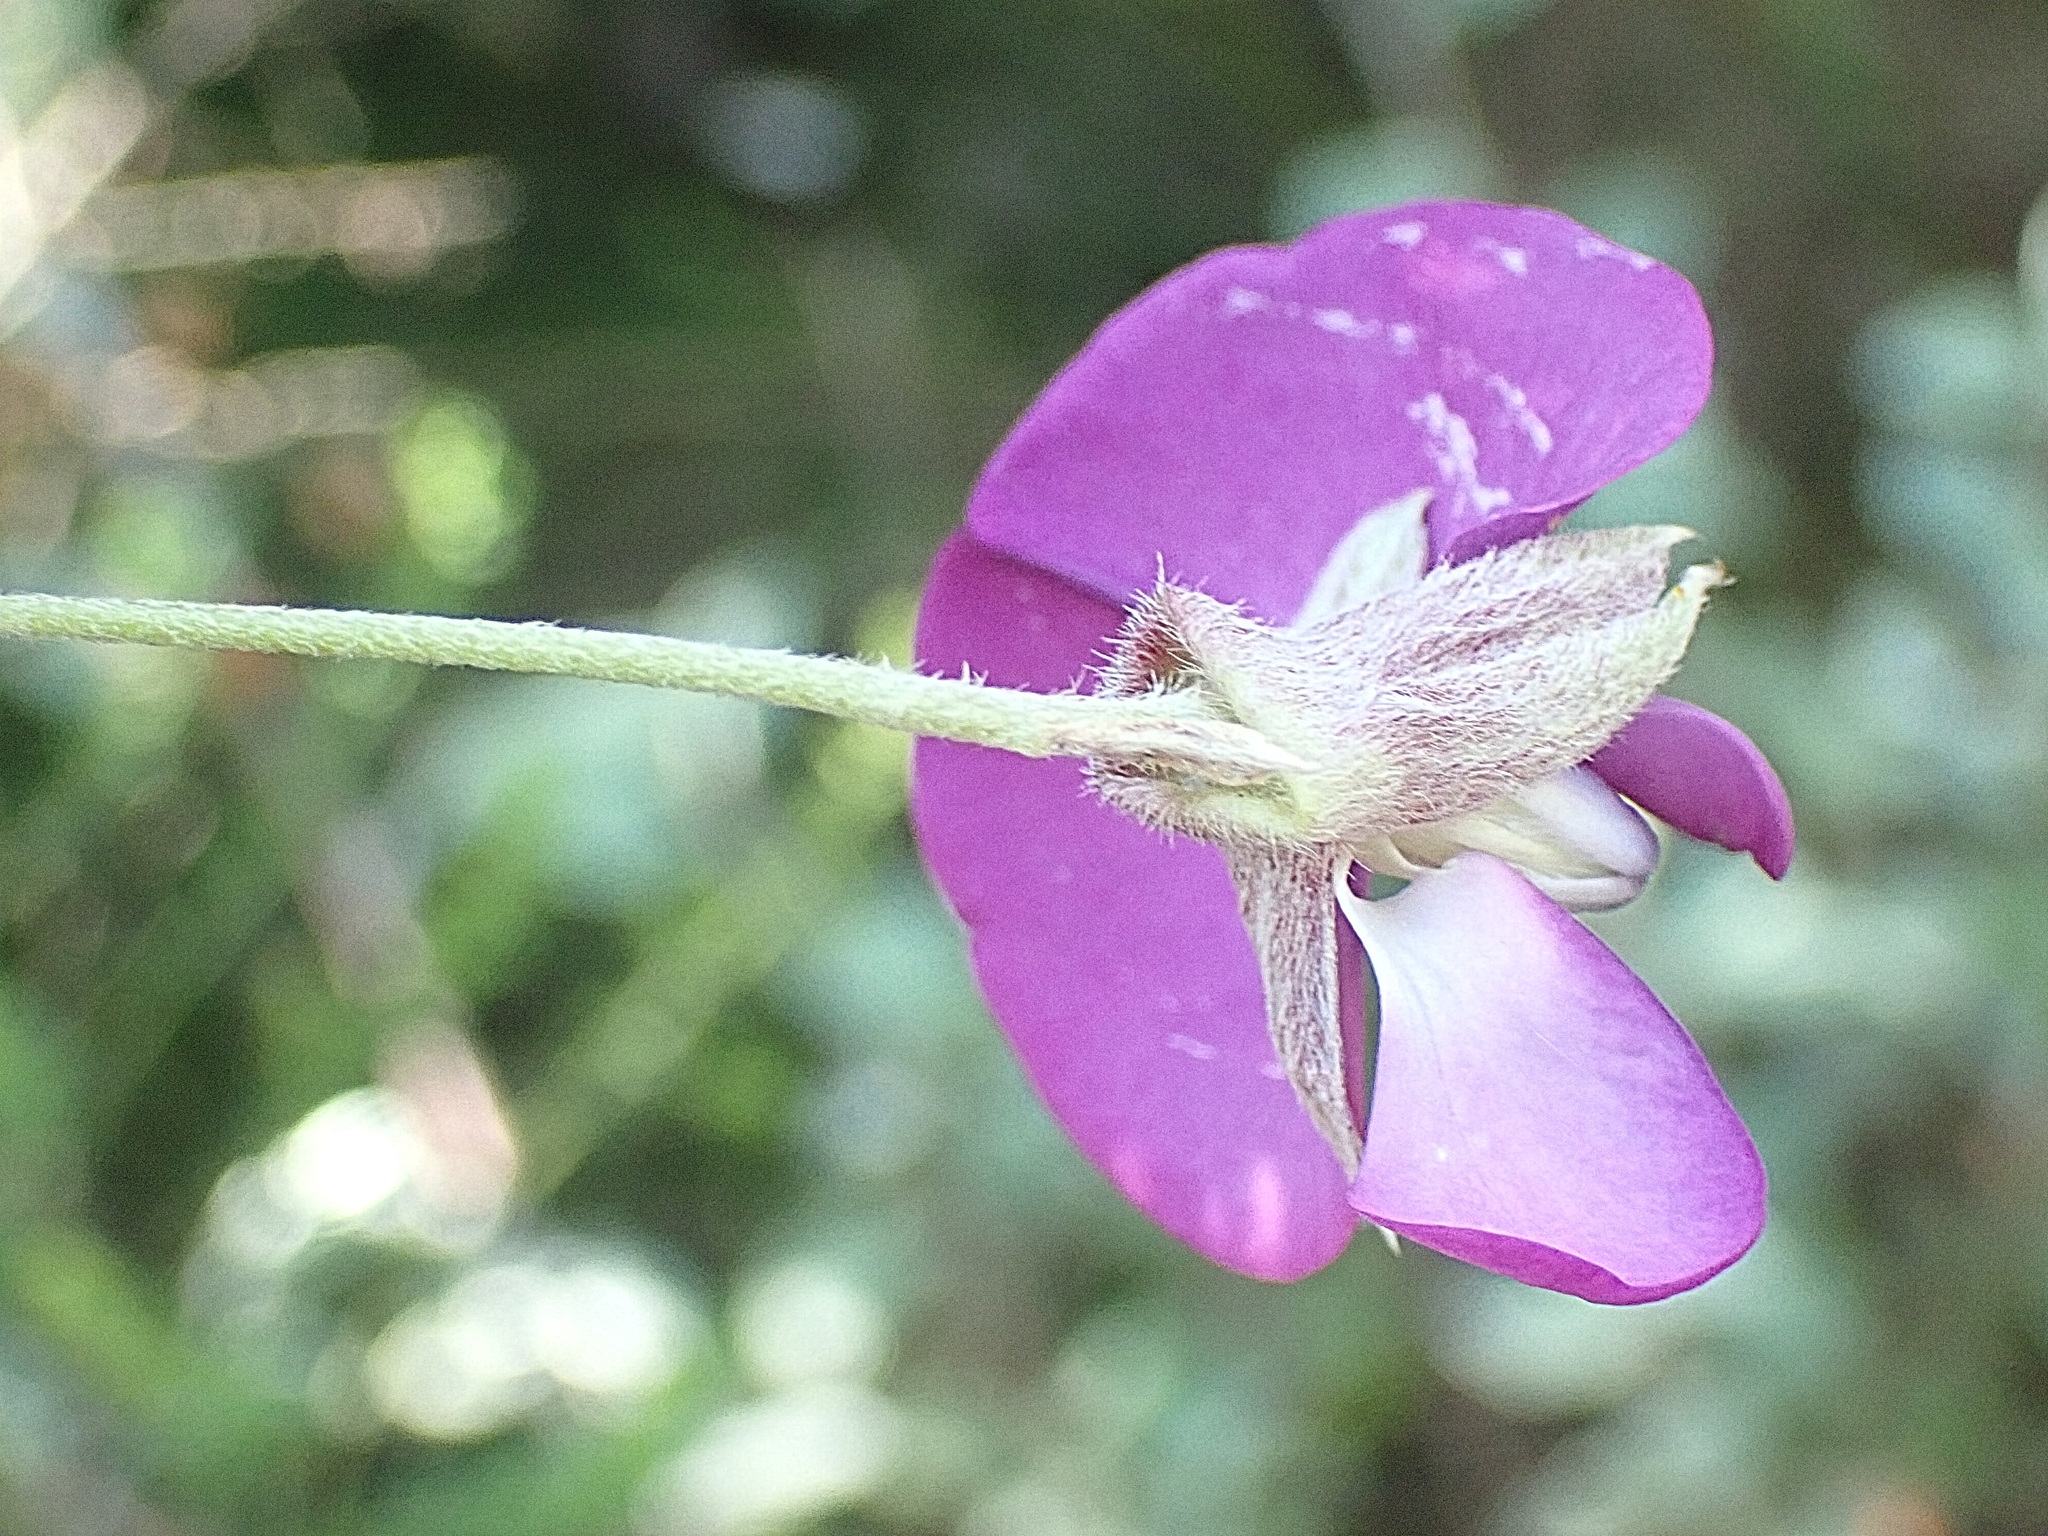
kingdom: Plantae
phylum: Tracheophyta
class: Magnoliopsida
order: Fabales
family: Fabaceae
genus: Podalyria
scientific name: Podalyria buxifolia
